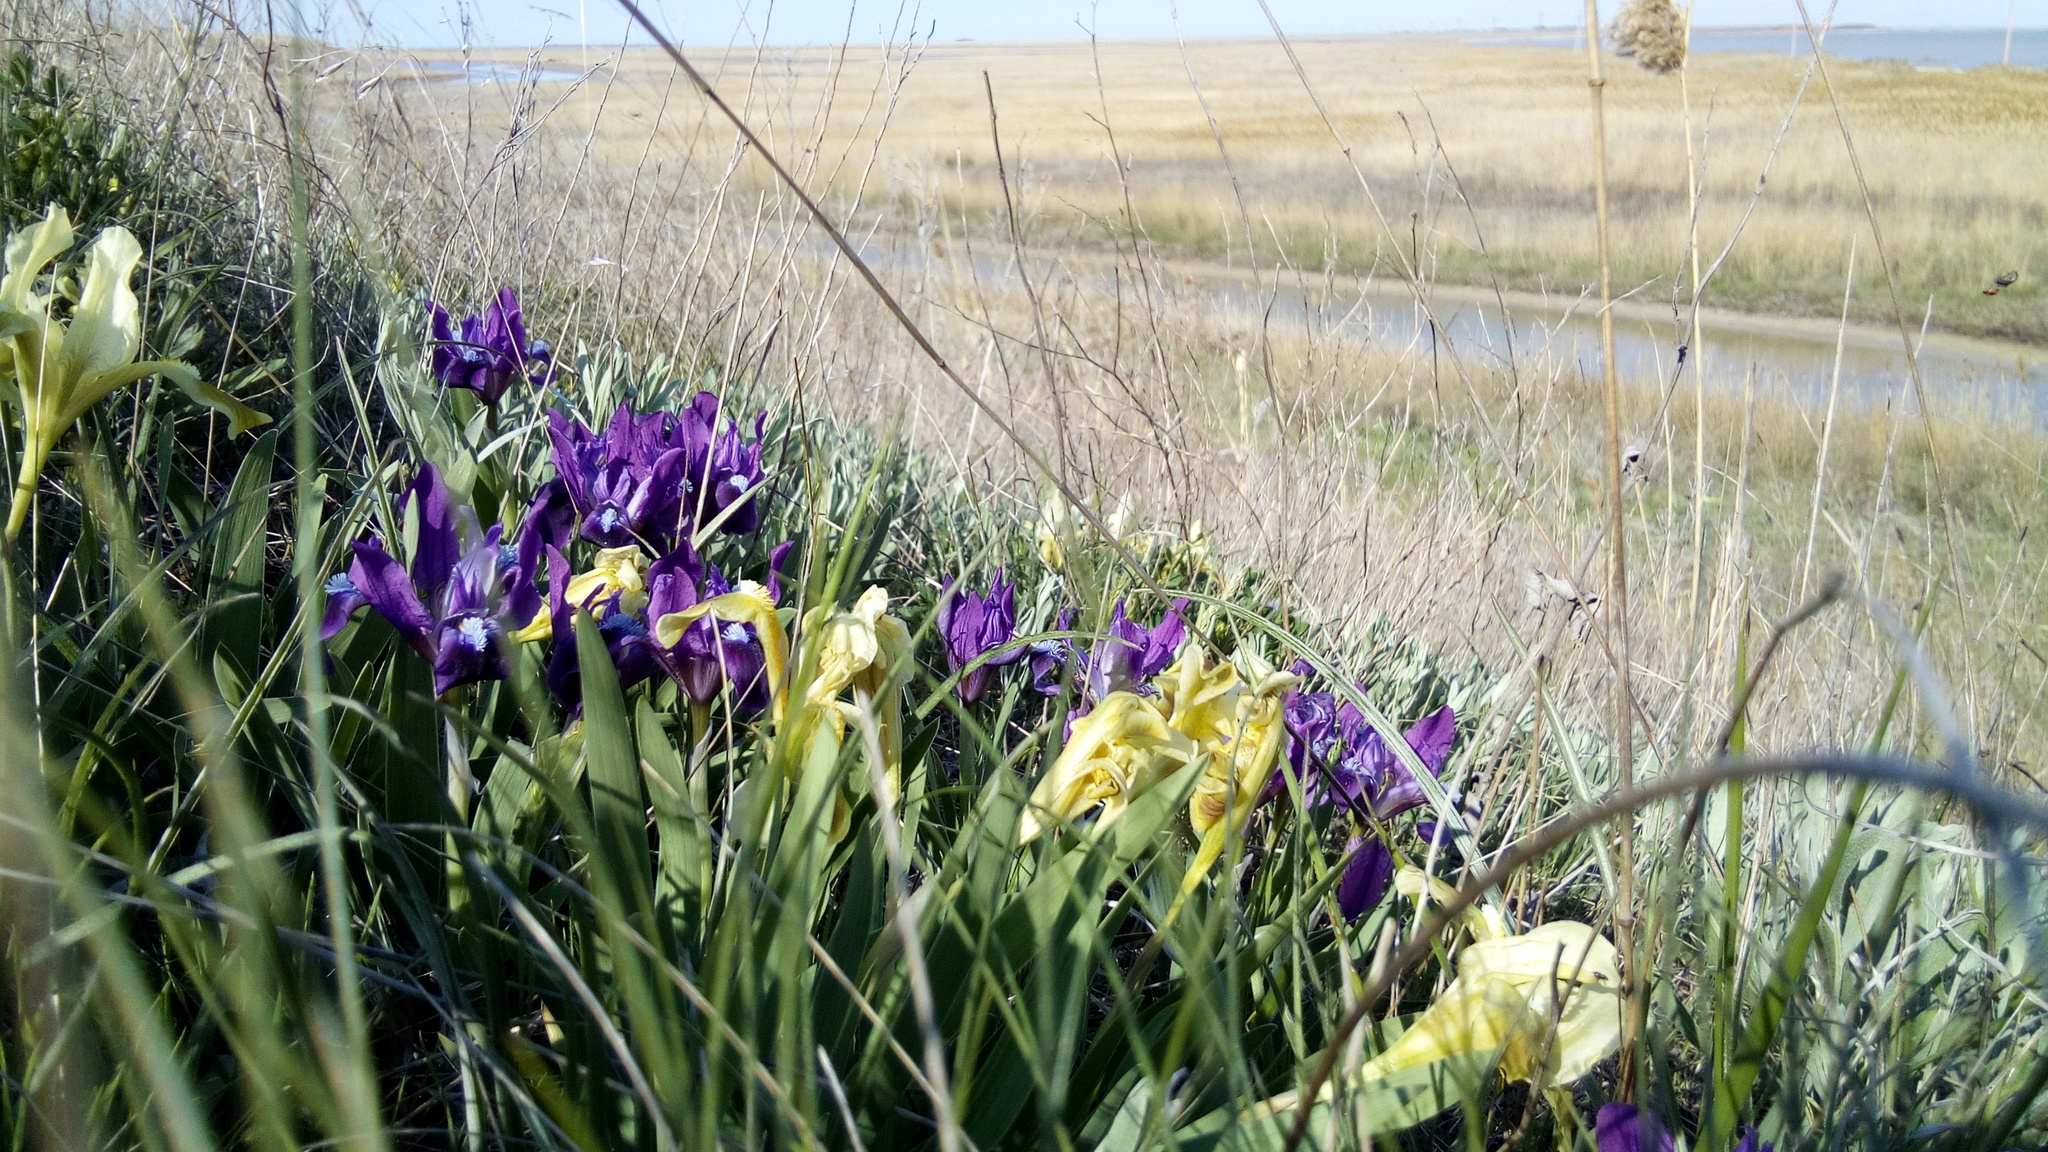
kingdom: Plantae
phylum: Tracheophyta
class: Liliopsida
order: Asparagales
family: Iridaceae
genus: Iris
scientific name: Iris pumila
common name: Dwarf iris
